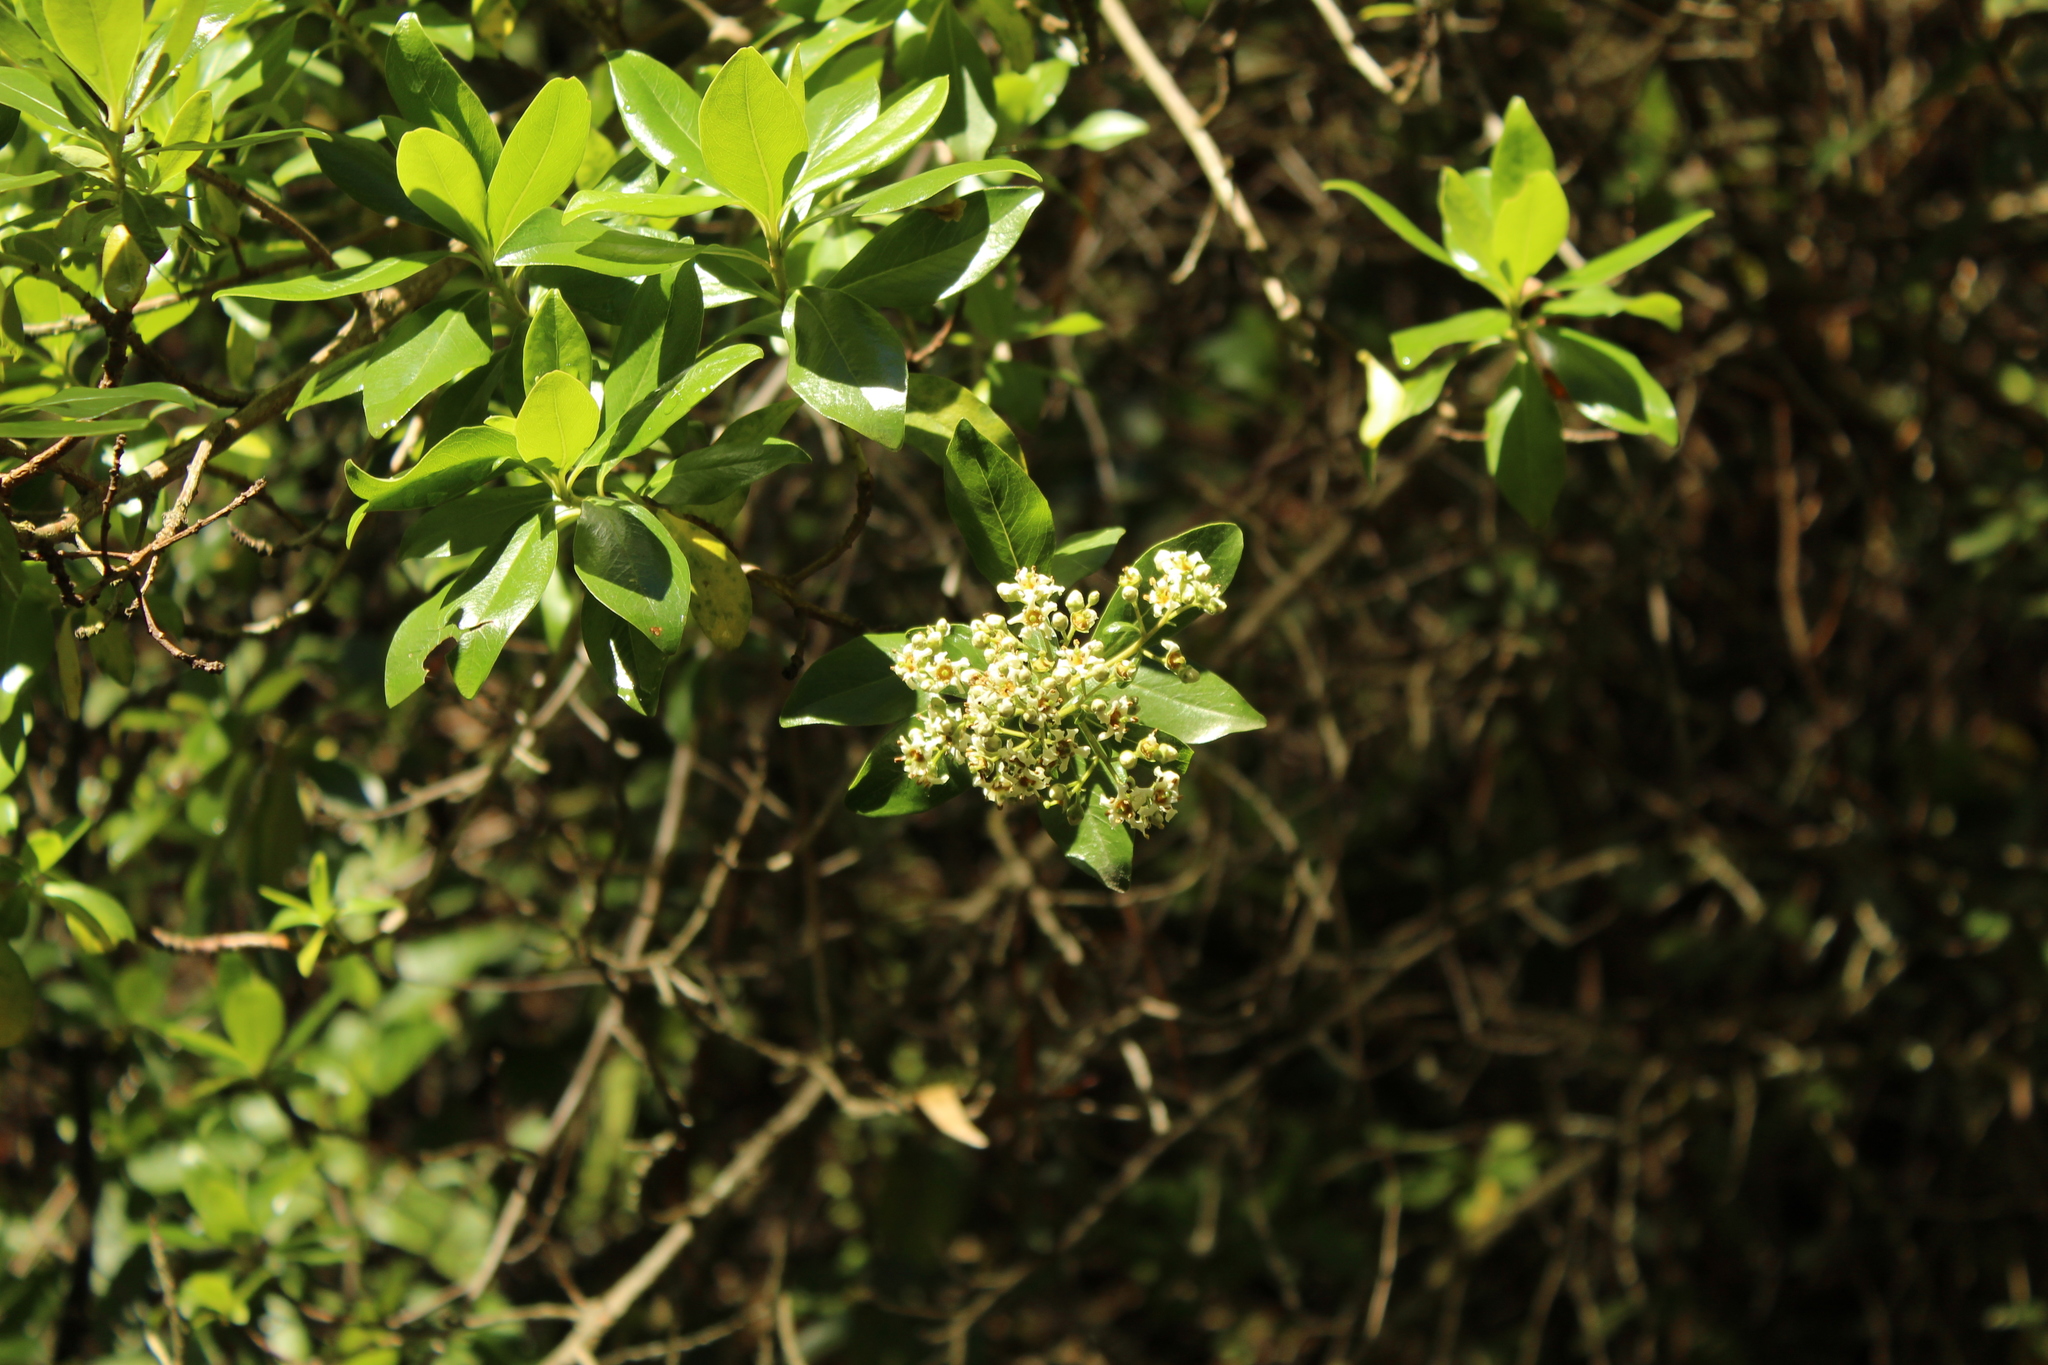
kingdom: Plantae
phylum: Tracheophyta
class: Magnoliopsida
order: Escalloniales
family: Escalloniaceae
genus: Escallonia
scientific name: Escallonia paniculata
